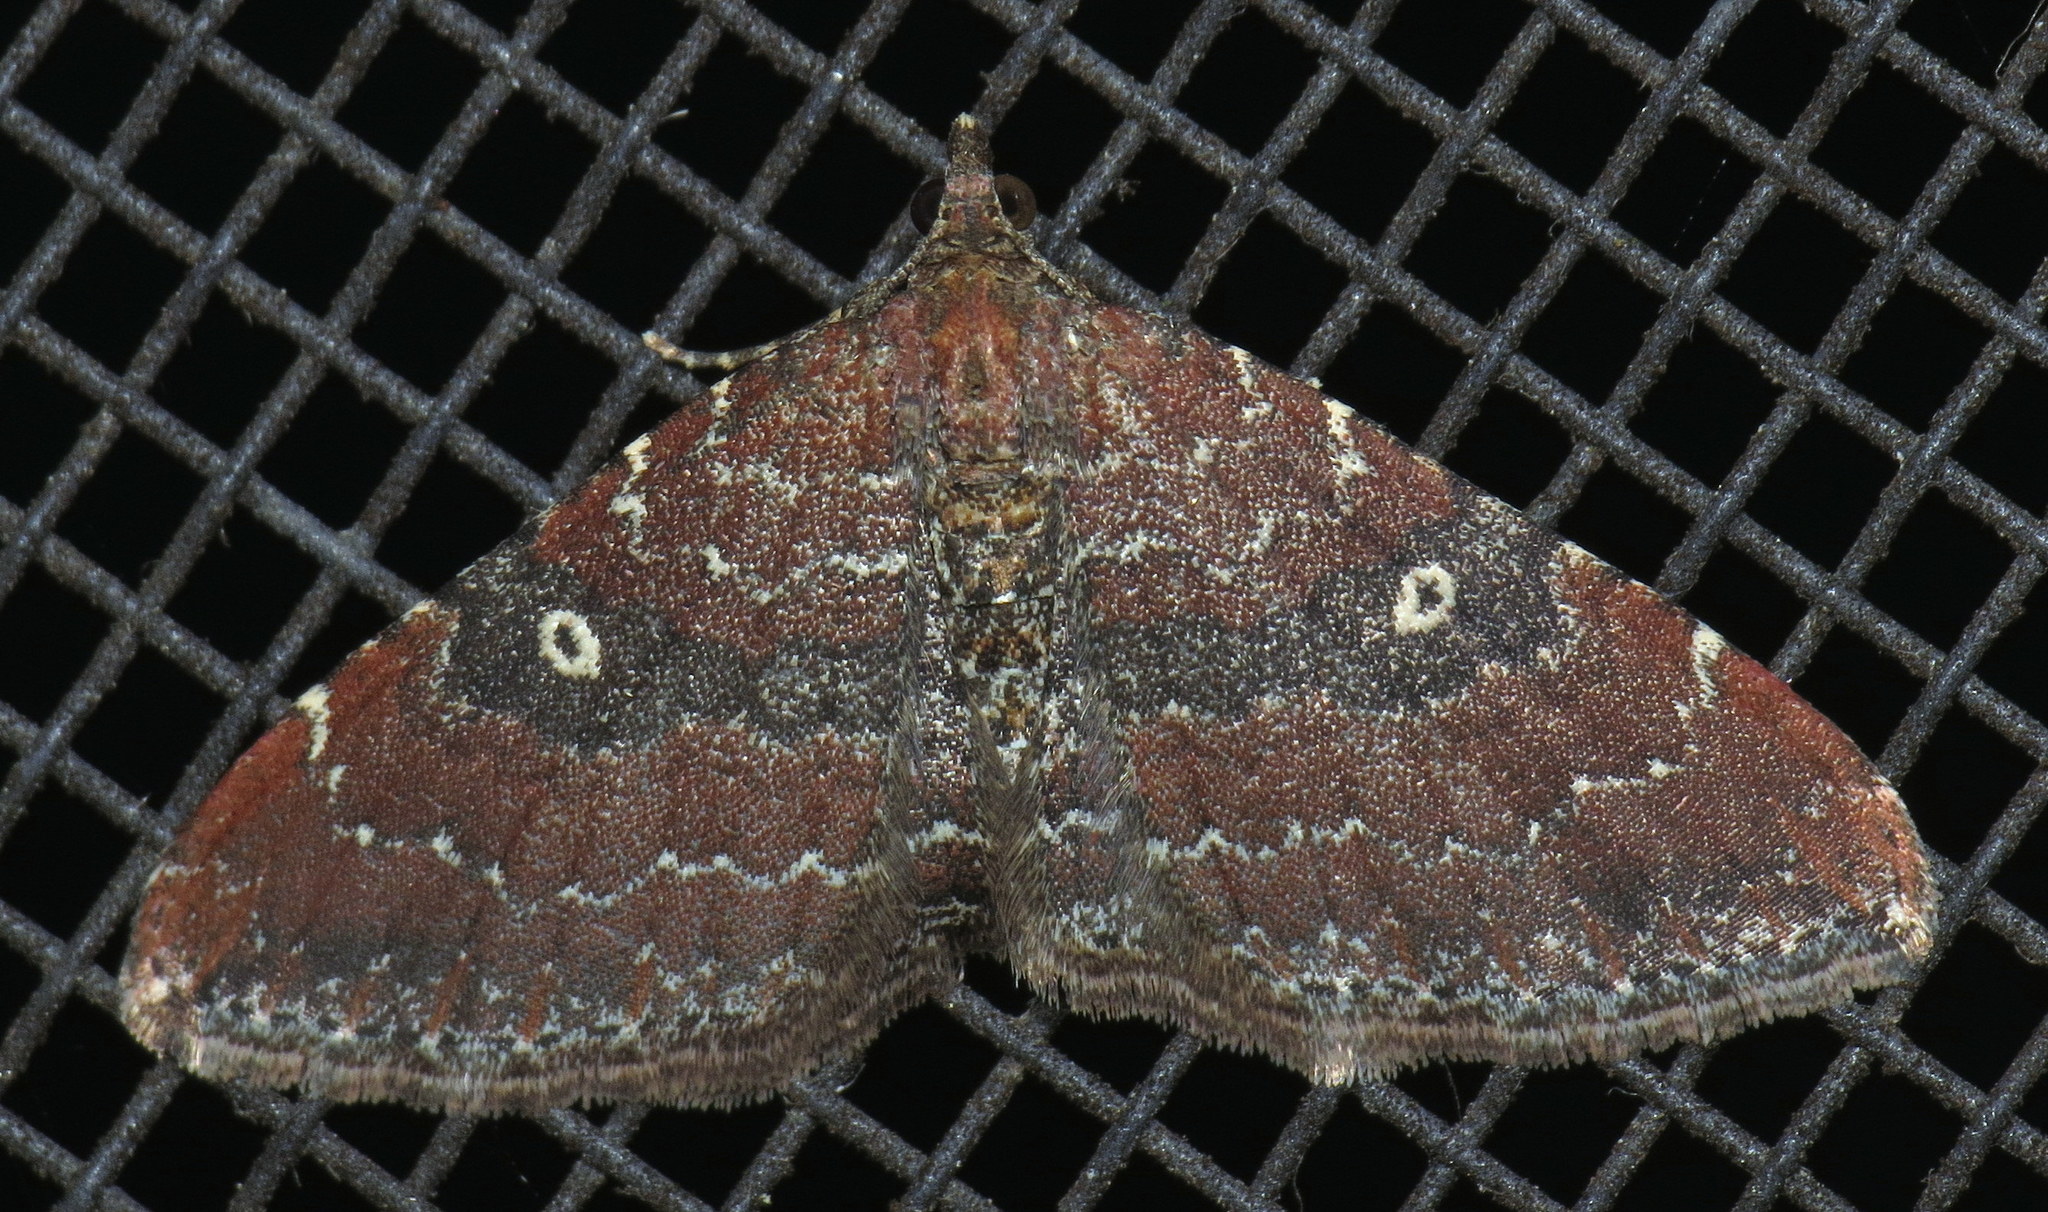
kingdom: Animalia
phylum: Arthropoda
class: Insecta
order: Lepidoptera
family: Geometridae
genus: Orthonama
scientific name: Orthonama obstipata
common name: The gem
